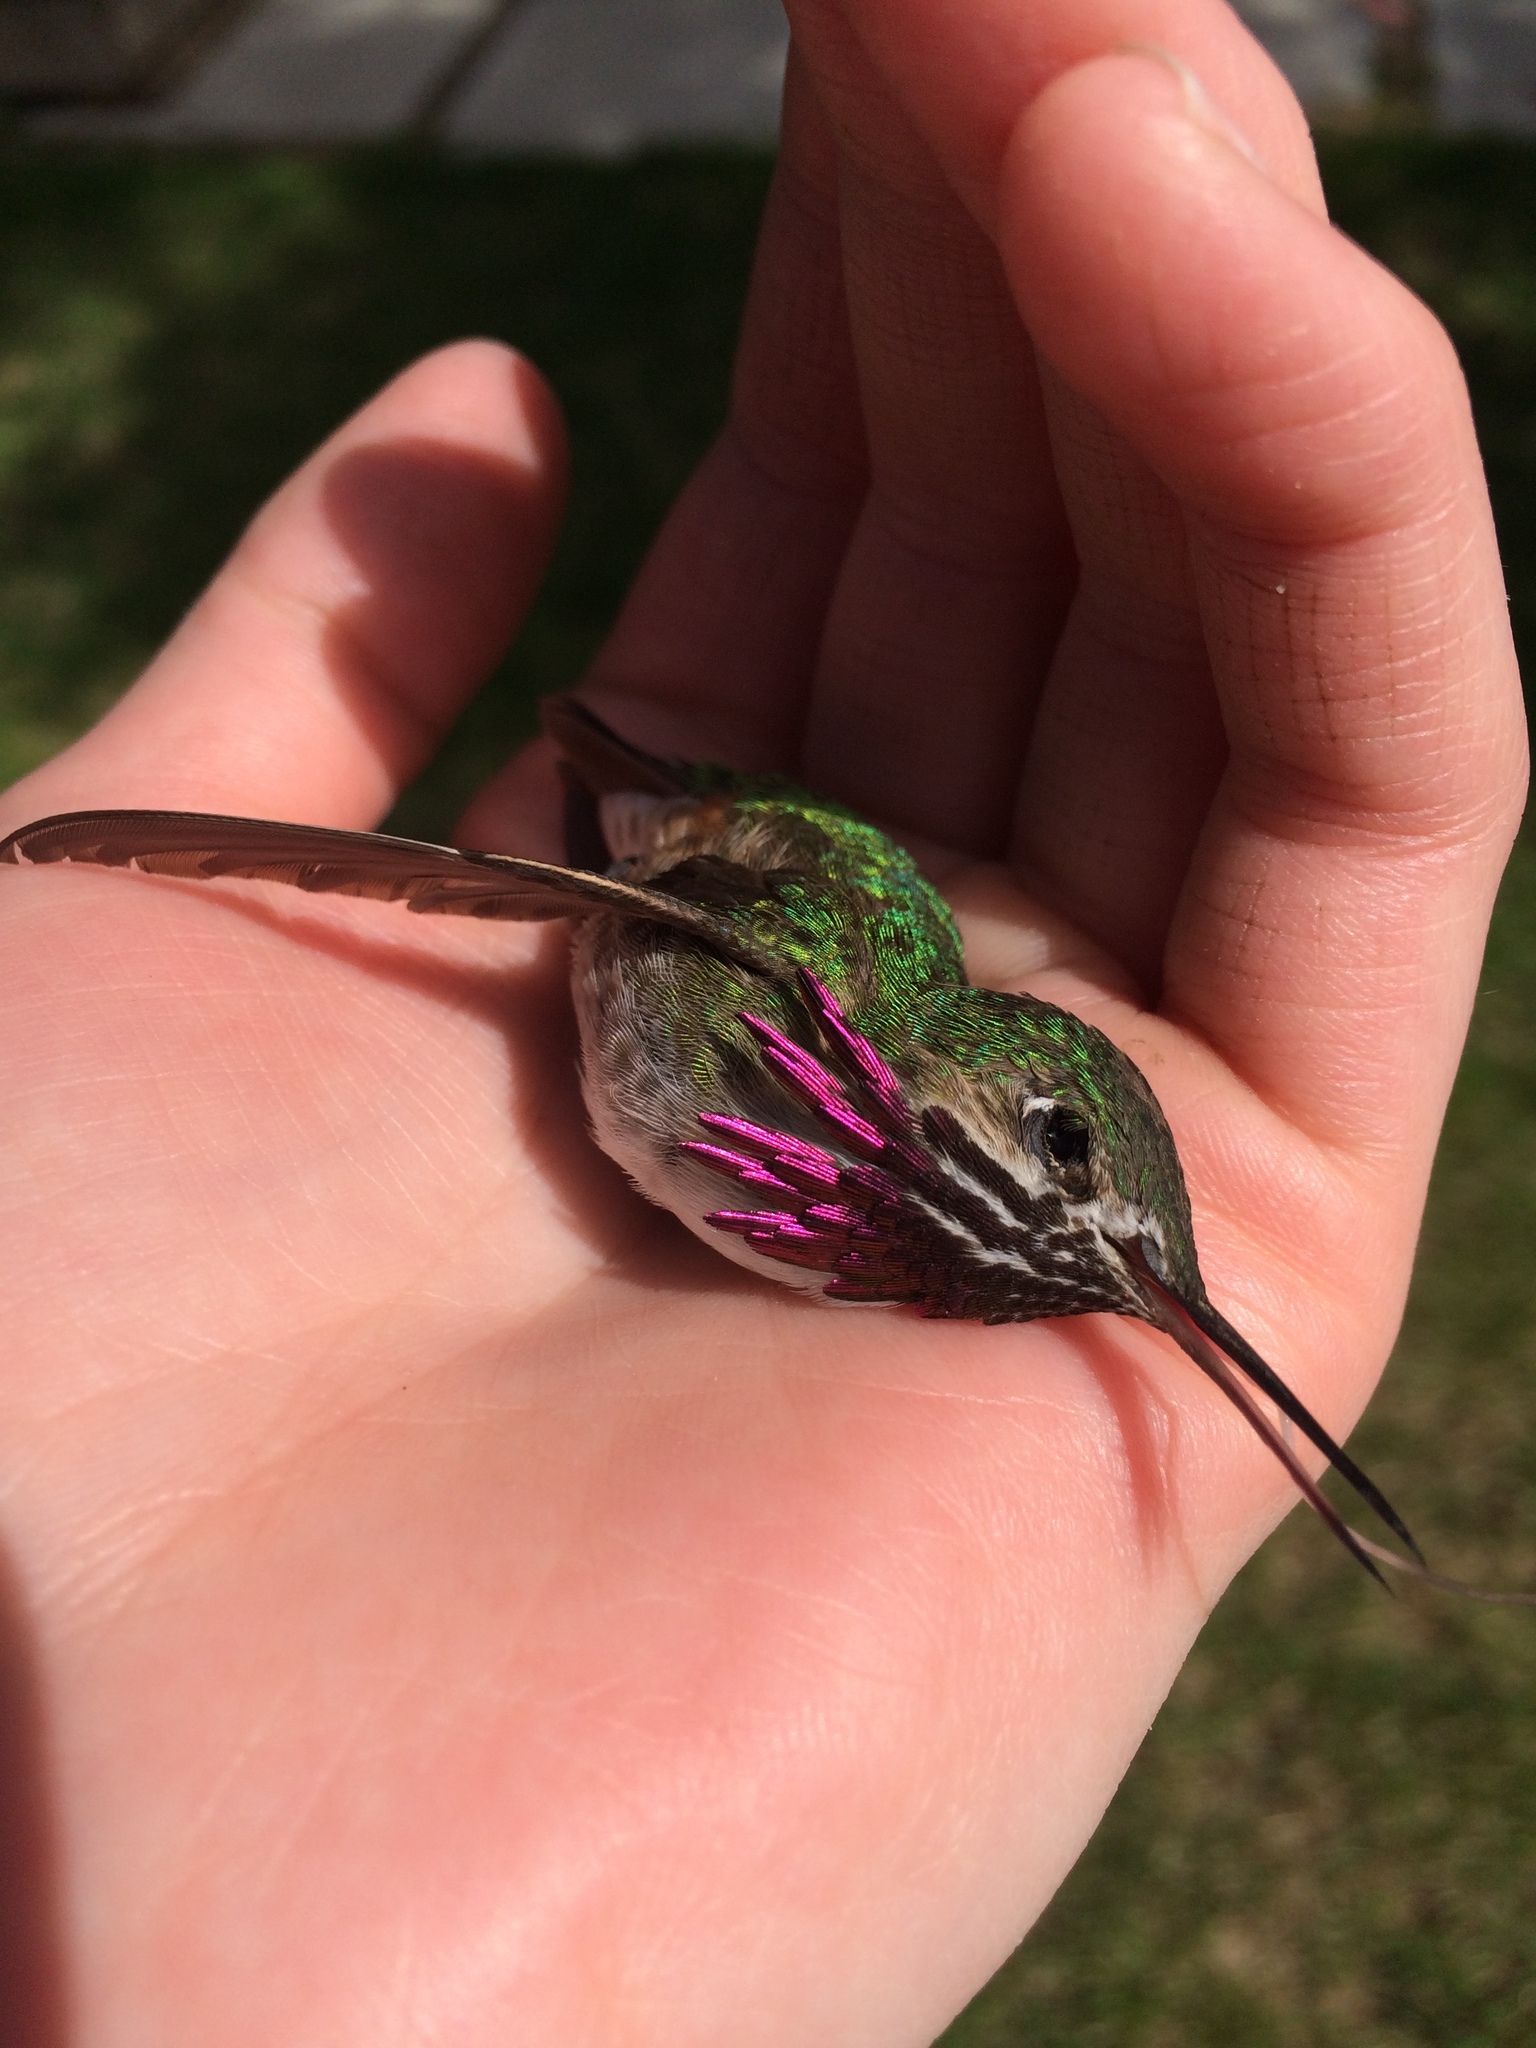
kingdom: Animalia
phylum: Chordata
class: Aves
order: Apodiformes
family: Trochilidae
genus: Selasphorus
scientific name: Selasphorus calliope
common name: Calliope hummingbird
